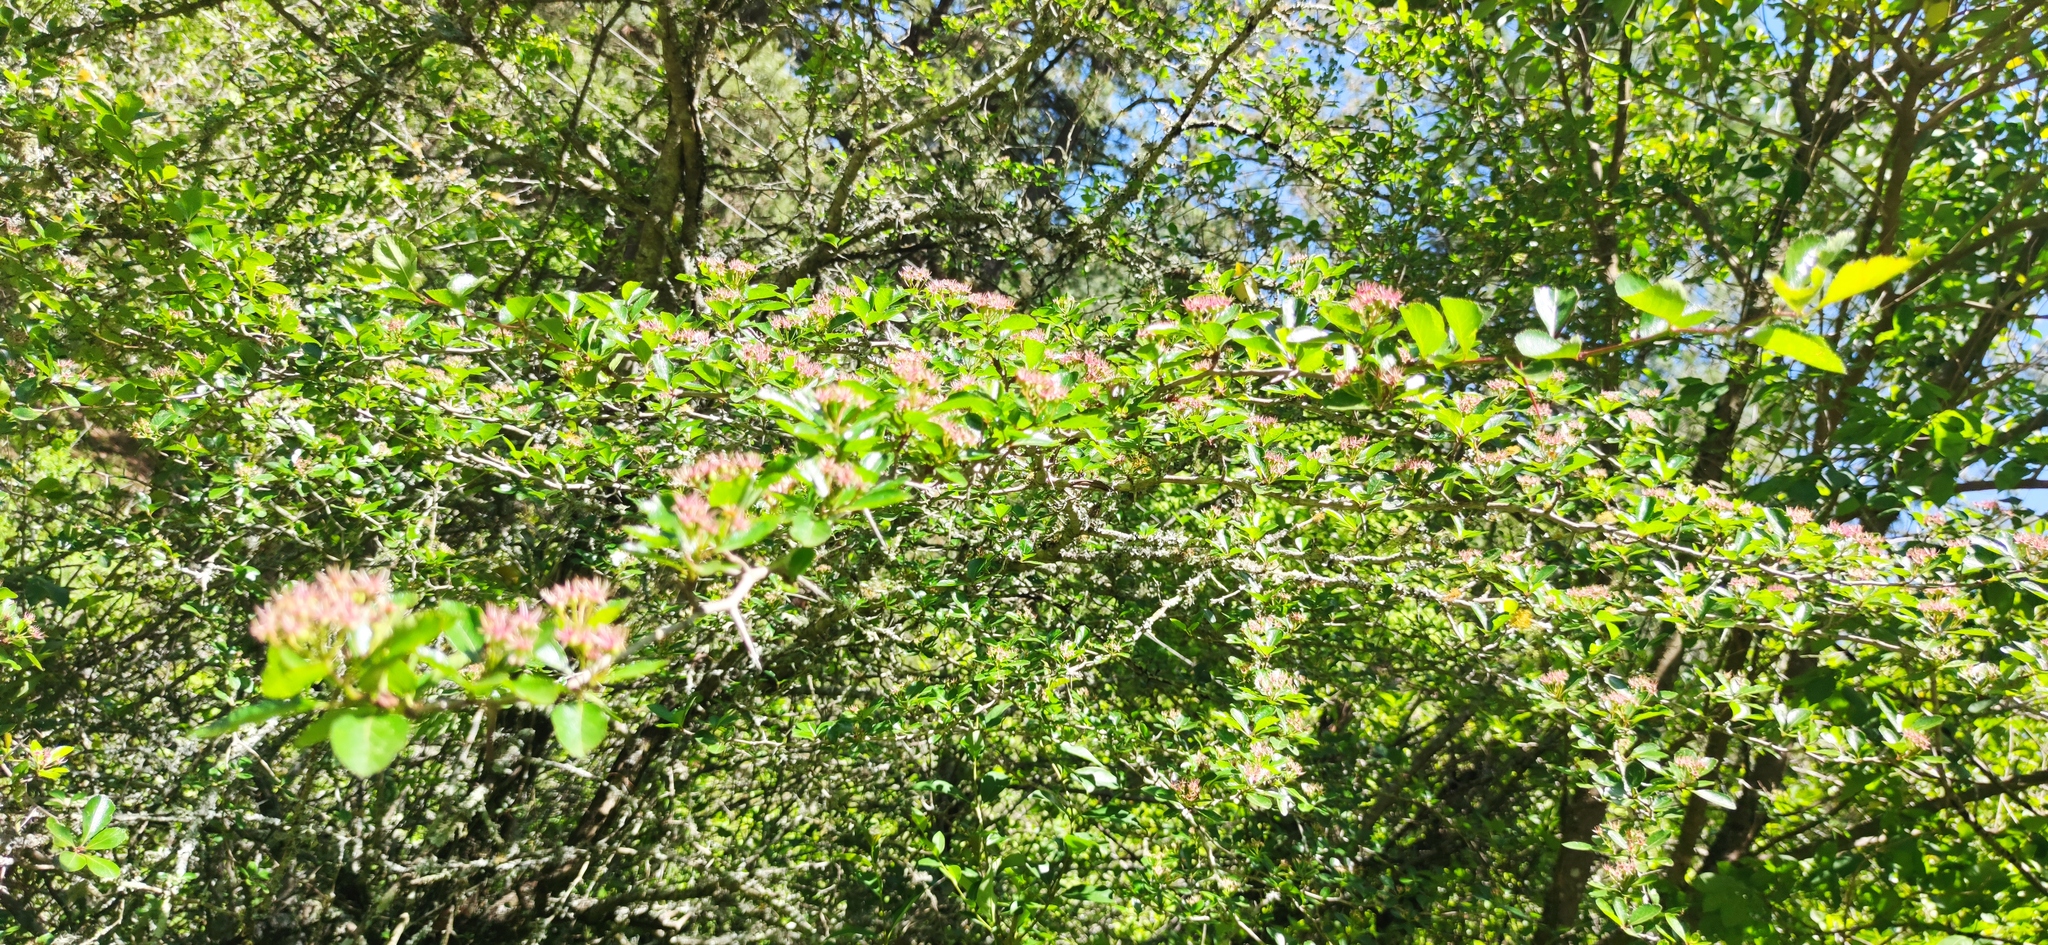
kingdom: Plantae
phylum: Tracheophyta
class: Magnoliopsida
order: Rosales
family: Rosaceae
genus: Malacomeles
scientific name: Malacomeles denticulata
